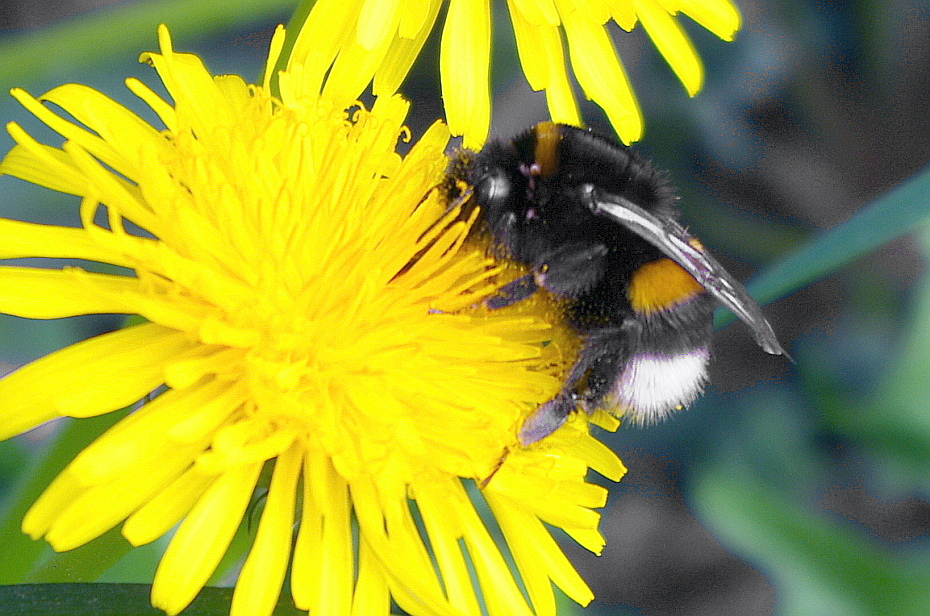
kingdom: Animalia
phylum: Arthropoda
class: Insecta
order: Hymenoptera
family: Apidae
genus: Bombus
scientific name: Bombus
